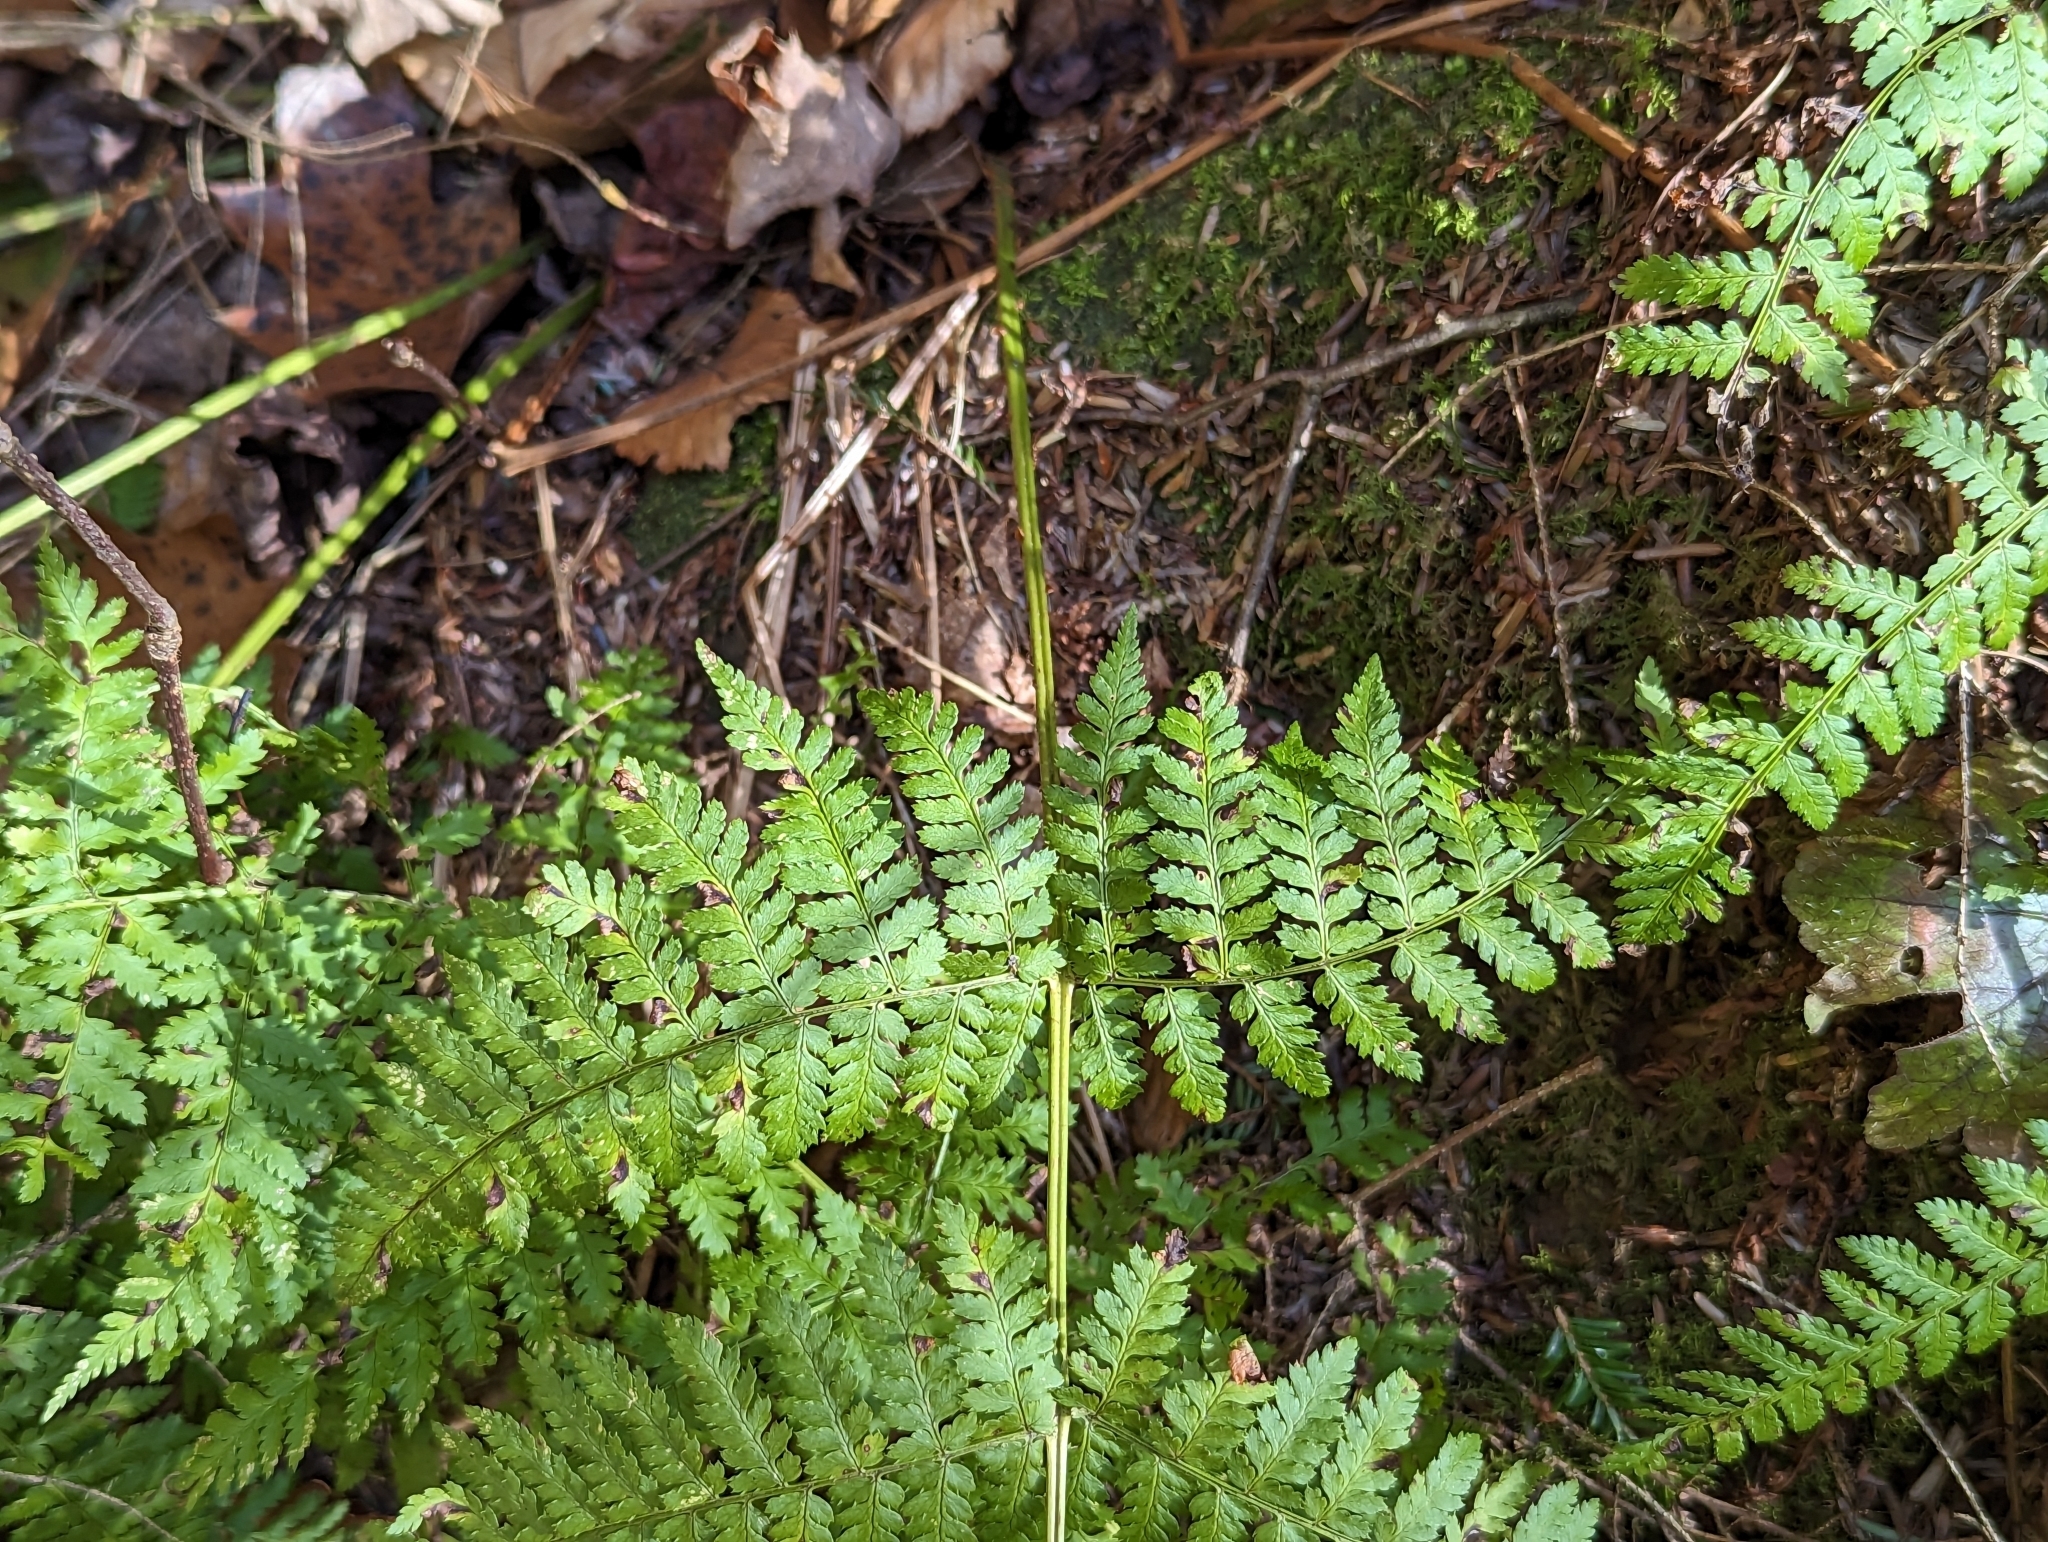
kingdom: Plantae
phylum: Tracheophyta
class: Polypodiopsida
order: Polypodiales
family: Dryopteridaceae
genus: Dryopteris
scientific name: Dryopteris intermedia
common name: Evergreen wood fern
